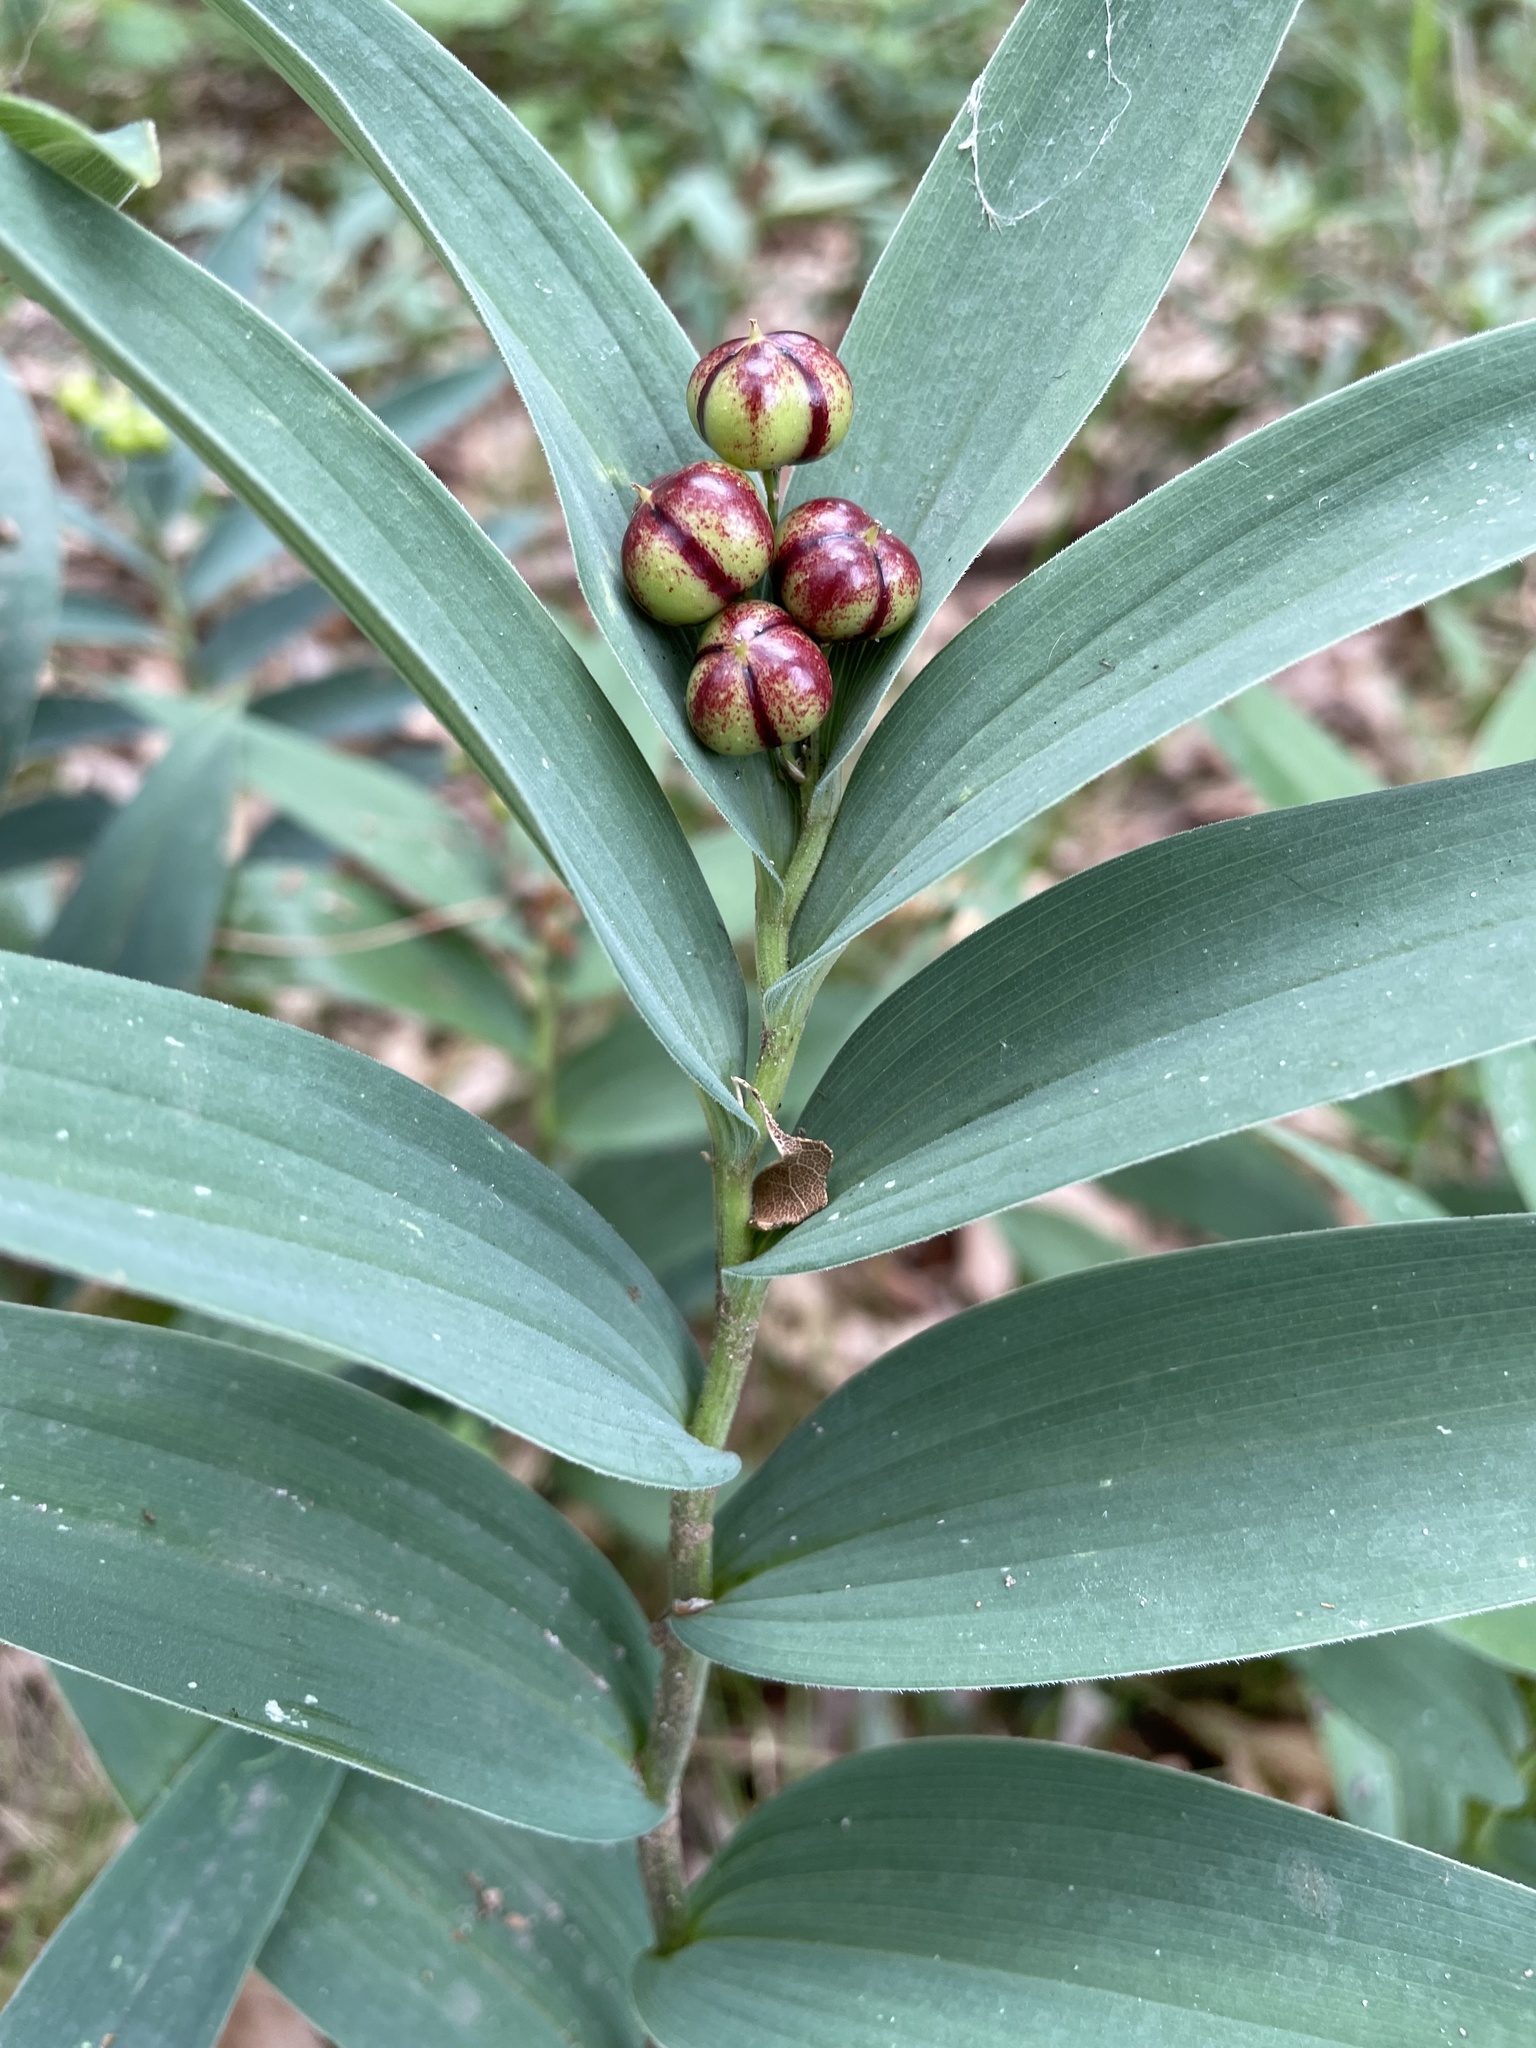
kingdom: Plantae
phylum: Tracheophyta
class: Liliopsida
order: Asparagales
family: Asparagaceae
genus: Maianthemum
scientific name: Maianthemum stellatum
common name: Little false solomon's seal
